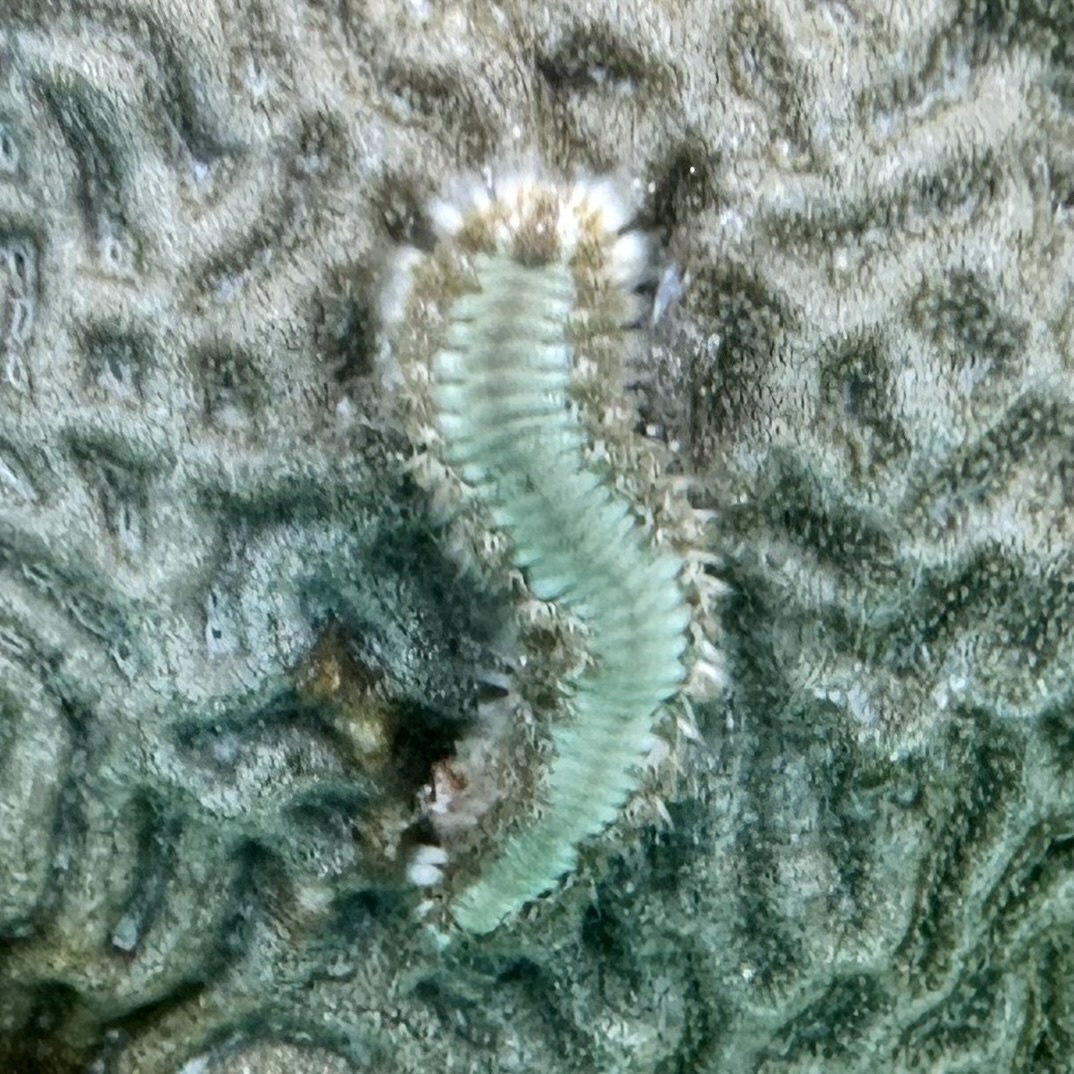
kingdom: Animalia
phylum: Annelida
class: Polychaeta
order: Amphinomida
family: Amphinomidae
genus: Hermodice
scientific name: Hermodice carunculata
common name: Bearded fireworm
